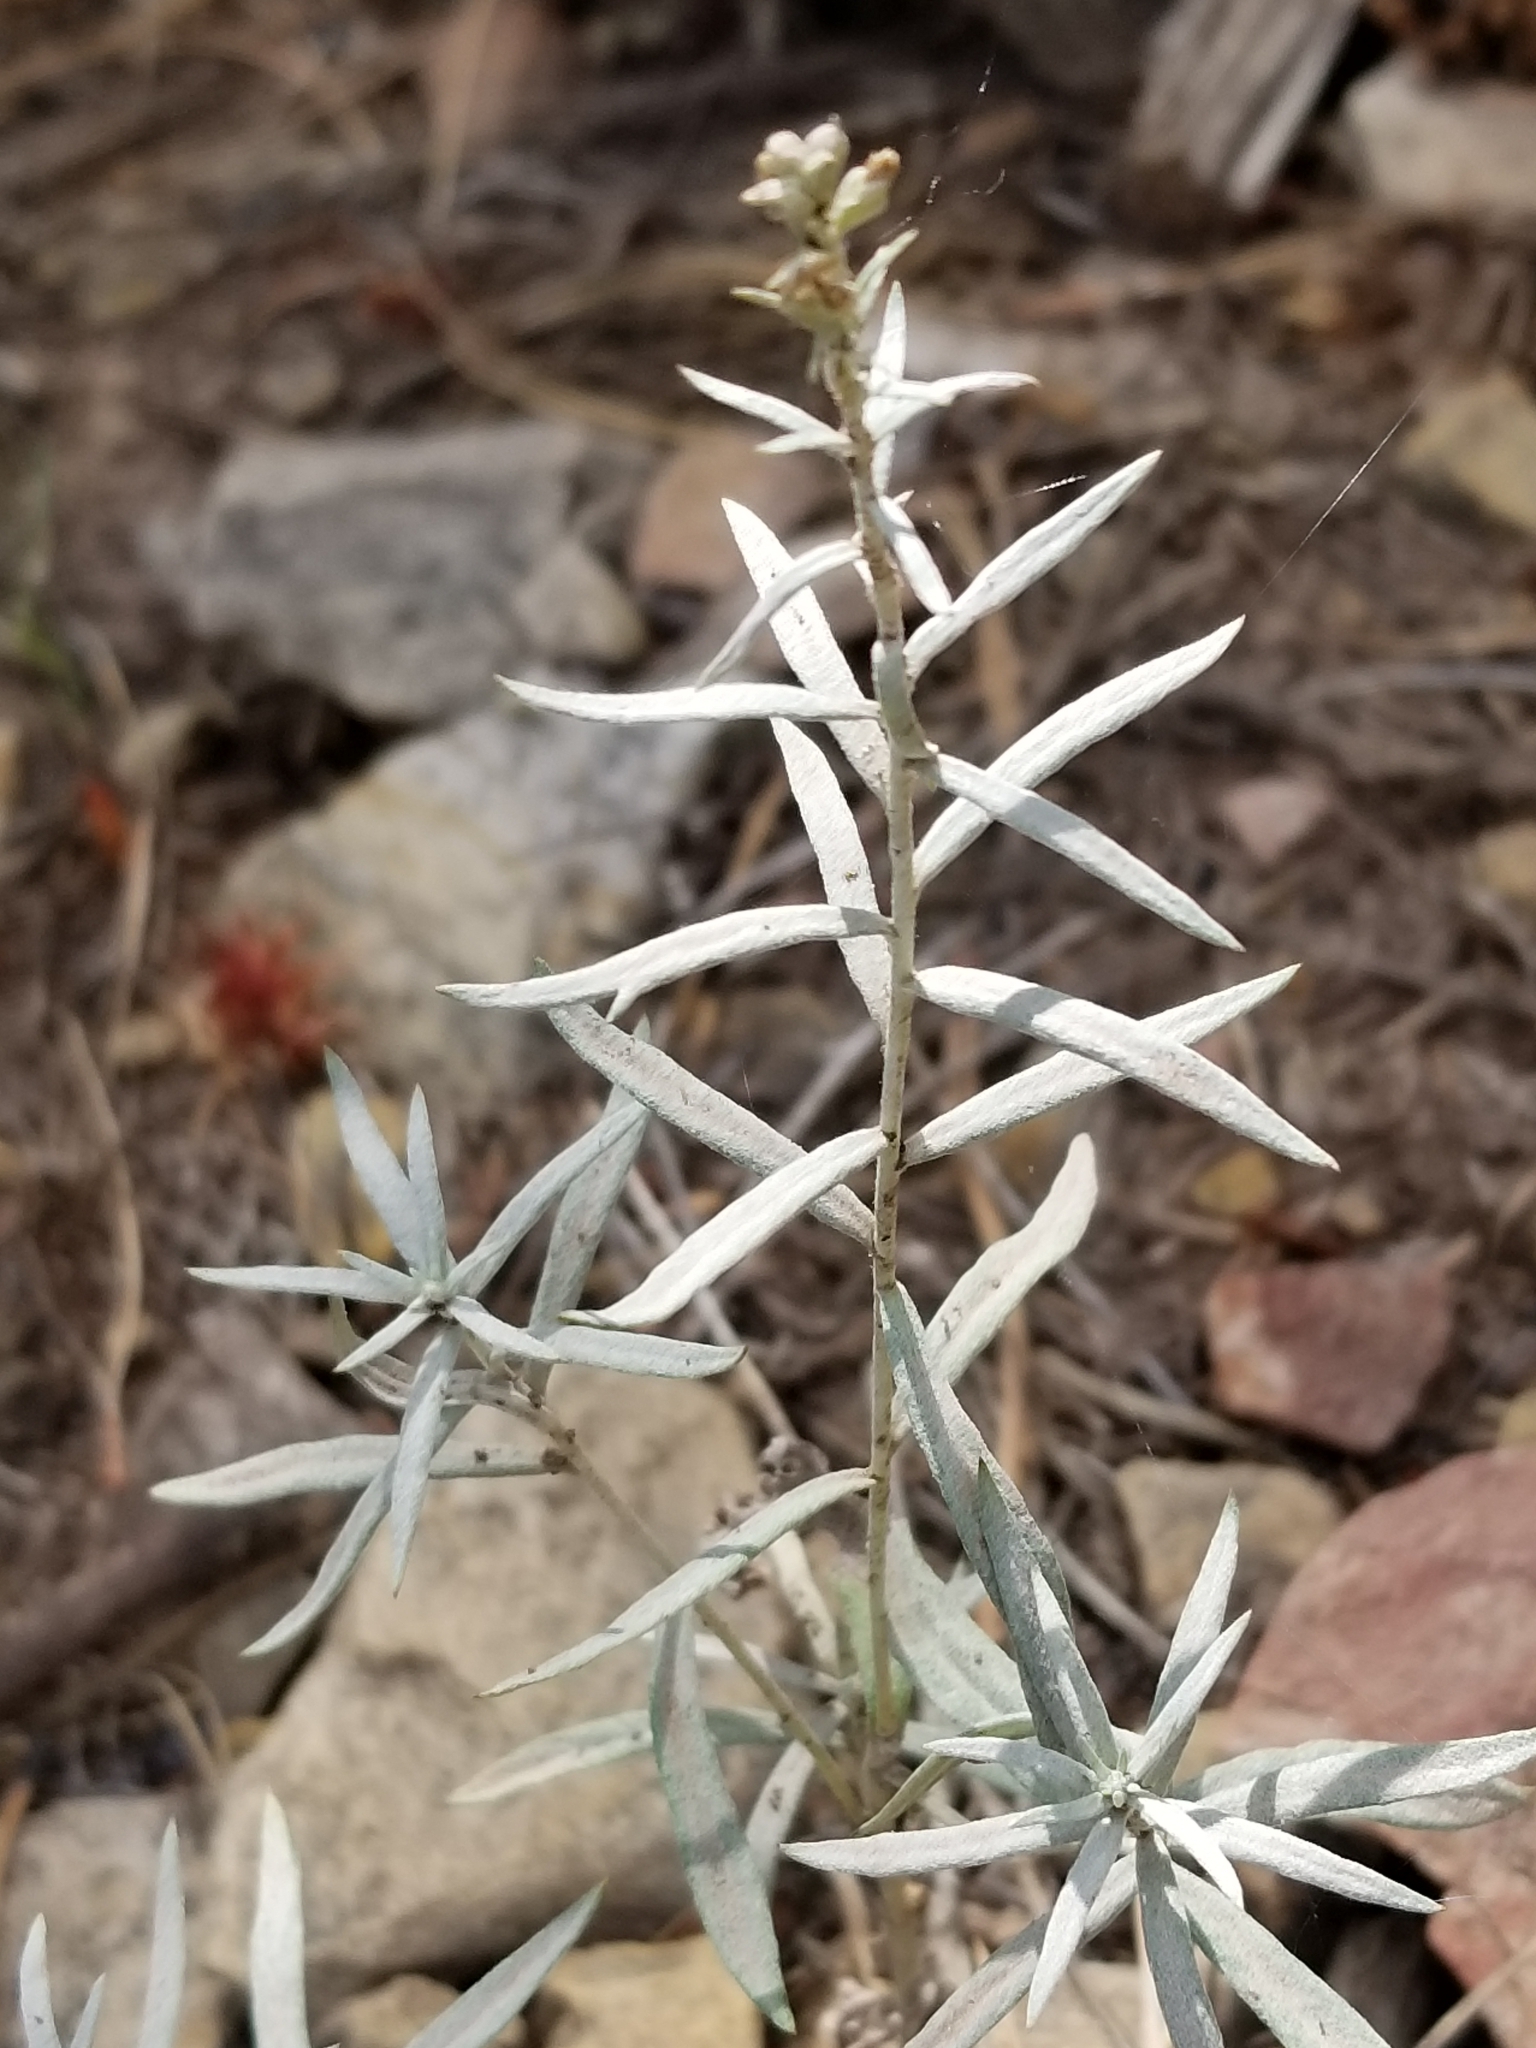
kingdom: Plantae
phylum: Tracheophyta
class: Magnoliopsida
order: Asterales
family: Asteraceae
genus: Artemisia
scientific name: Artemisia ludoviciana
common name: Western mugwort
